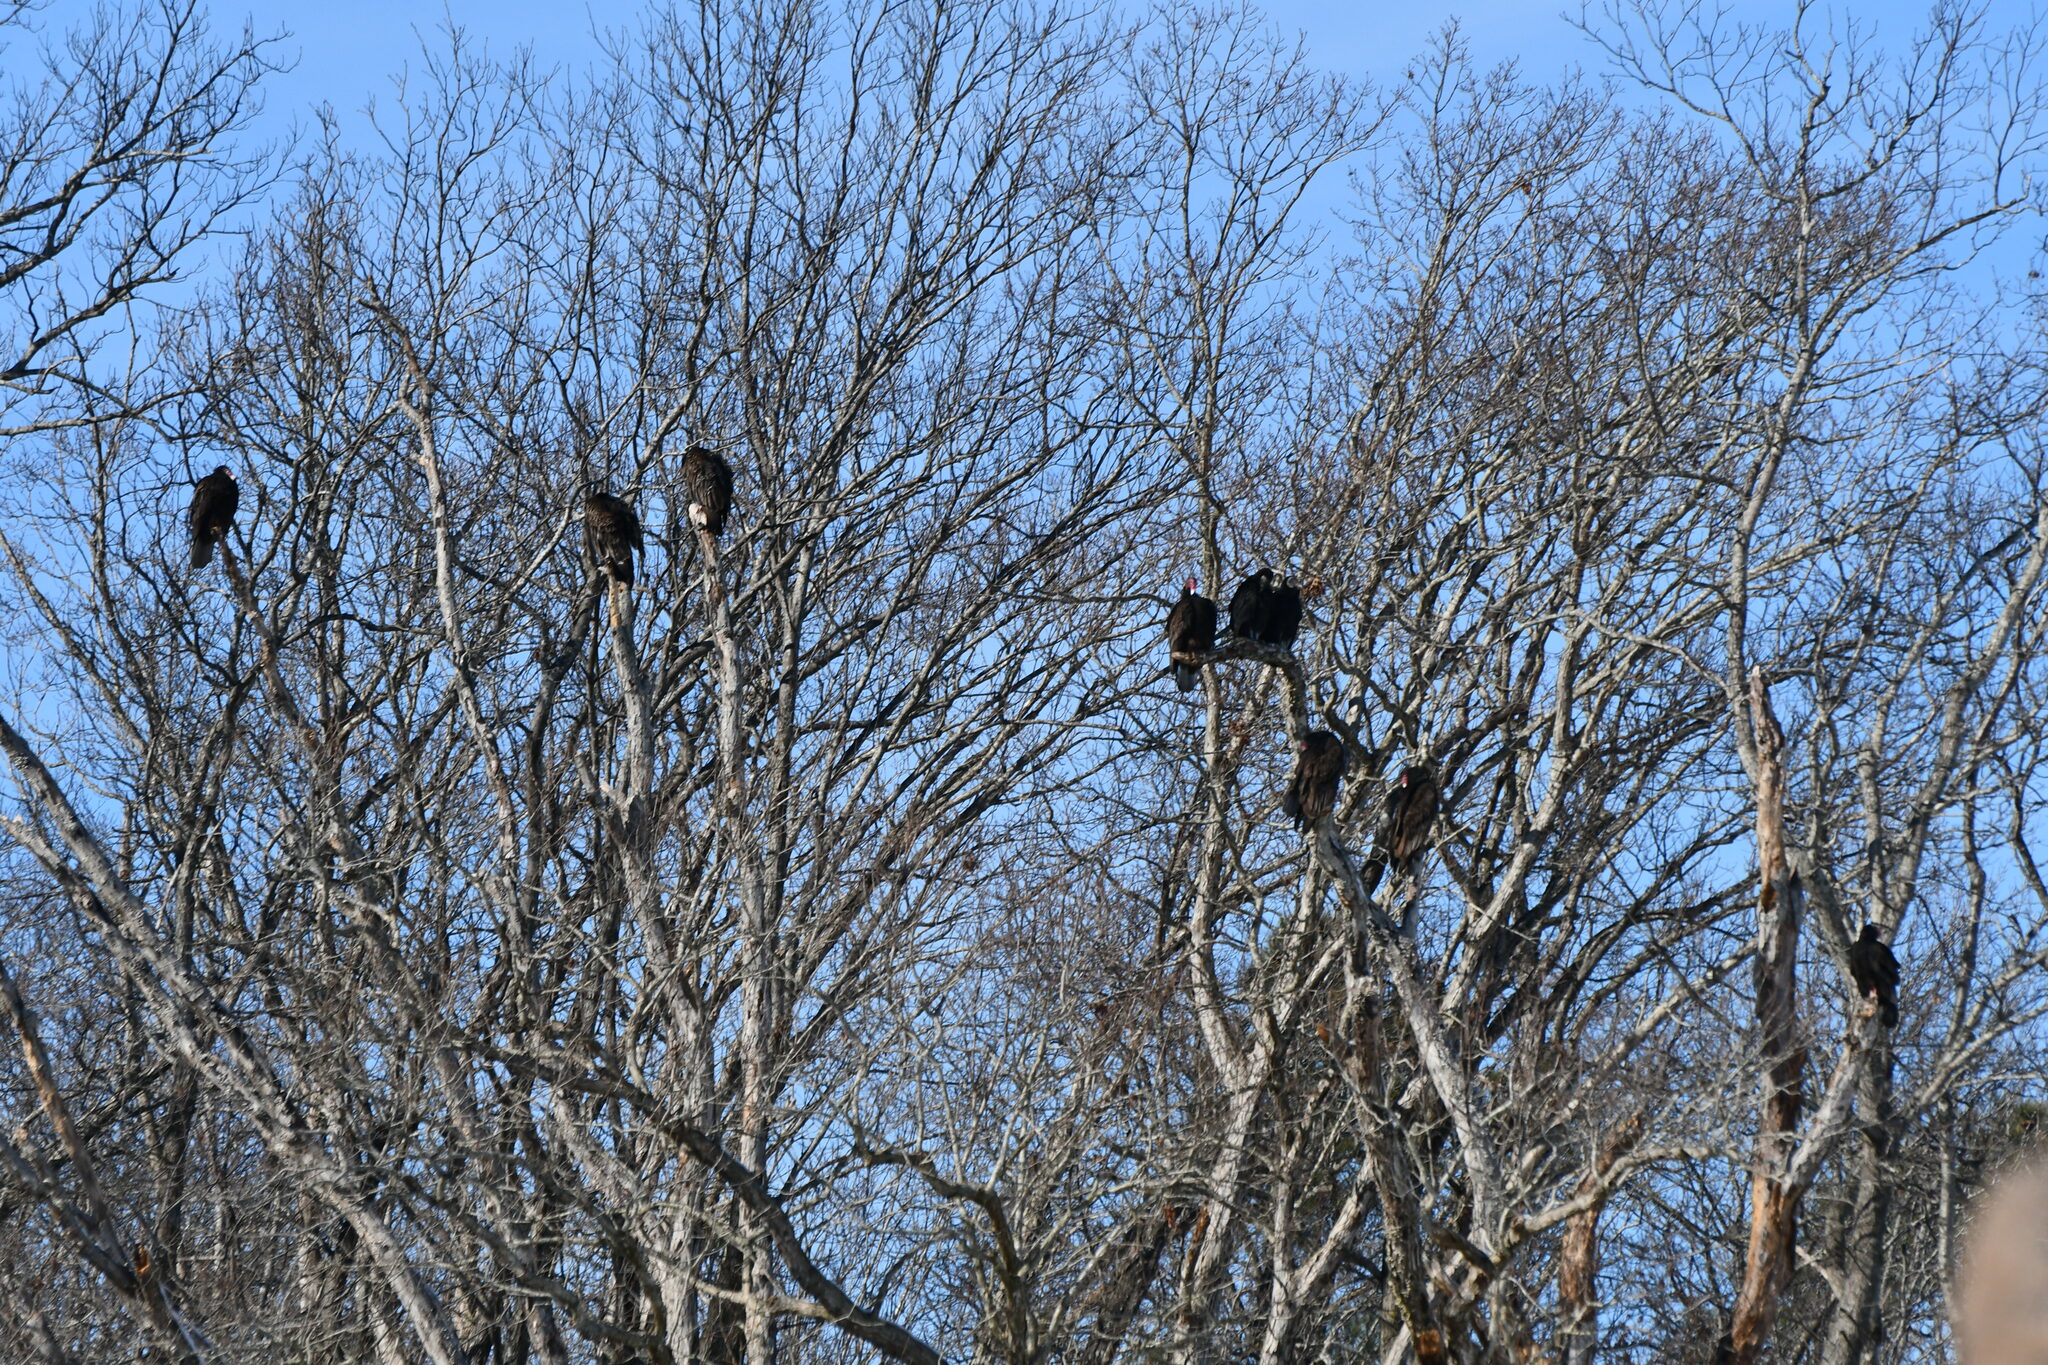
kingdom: Animalia
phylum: Chordata
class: Aves
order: Accipitriformes
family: Cathartidae
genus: Coragyps
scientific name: Coragyps atratus
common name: Black vulture
